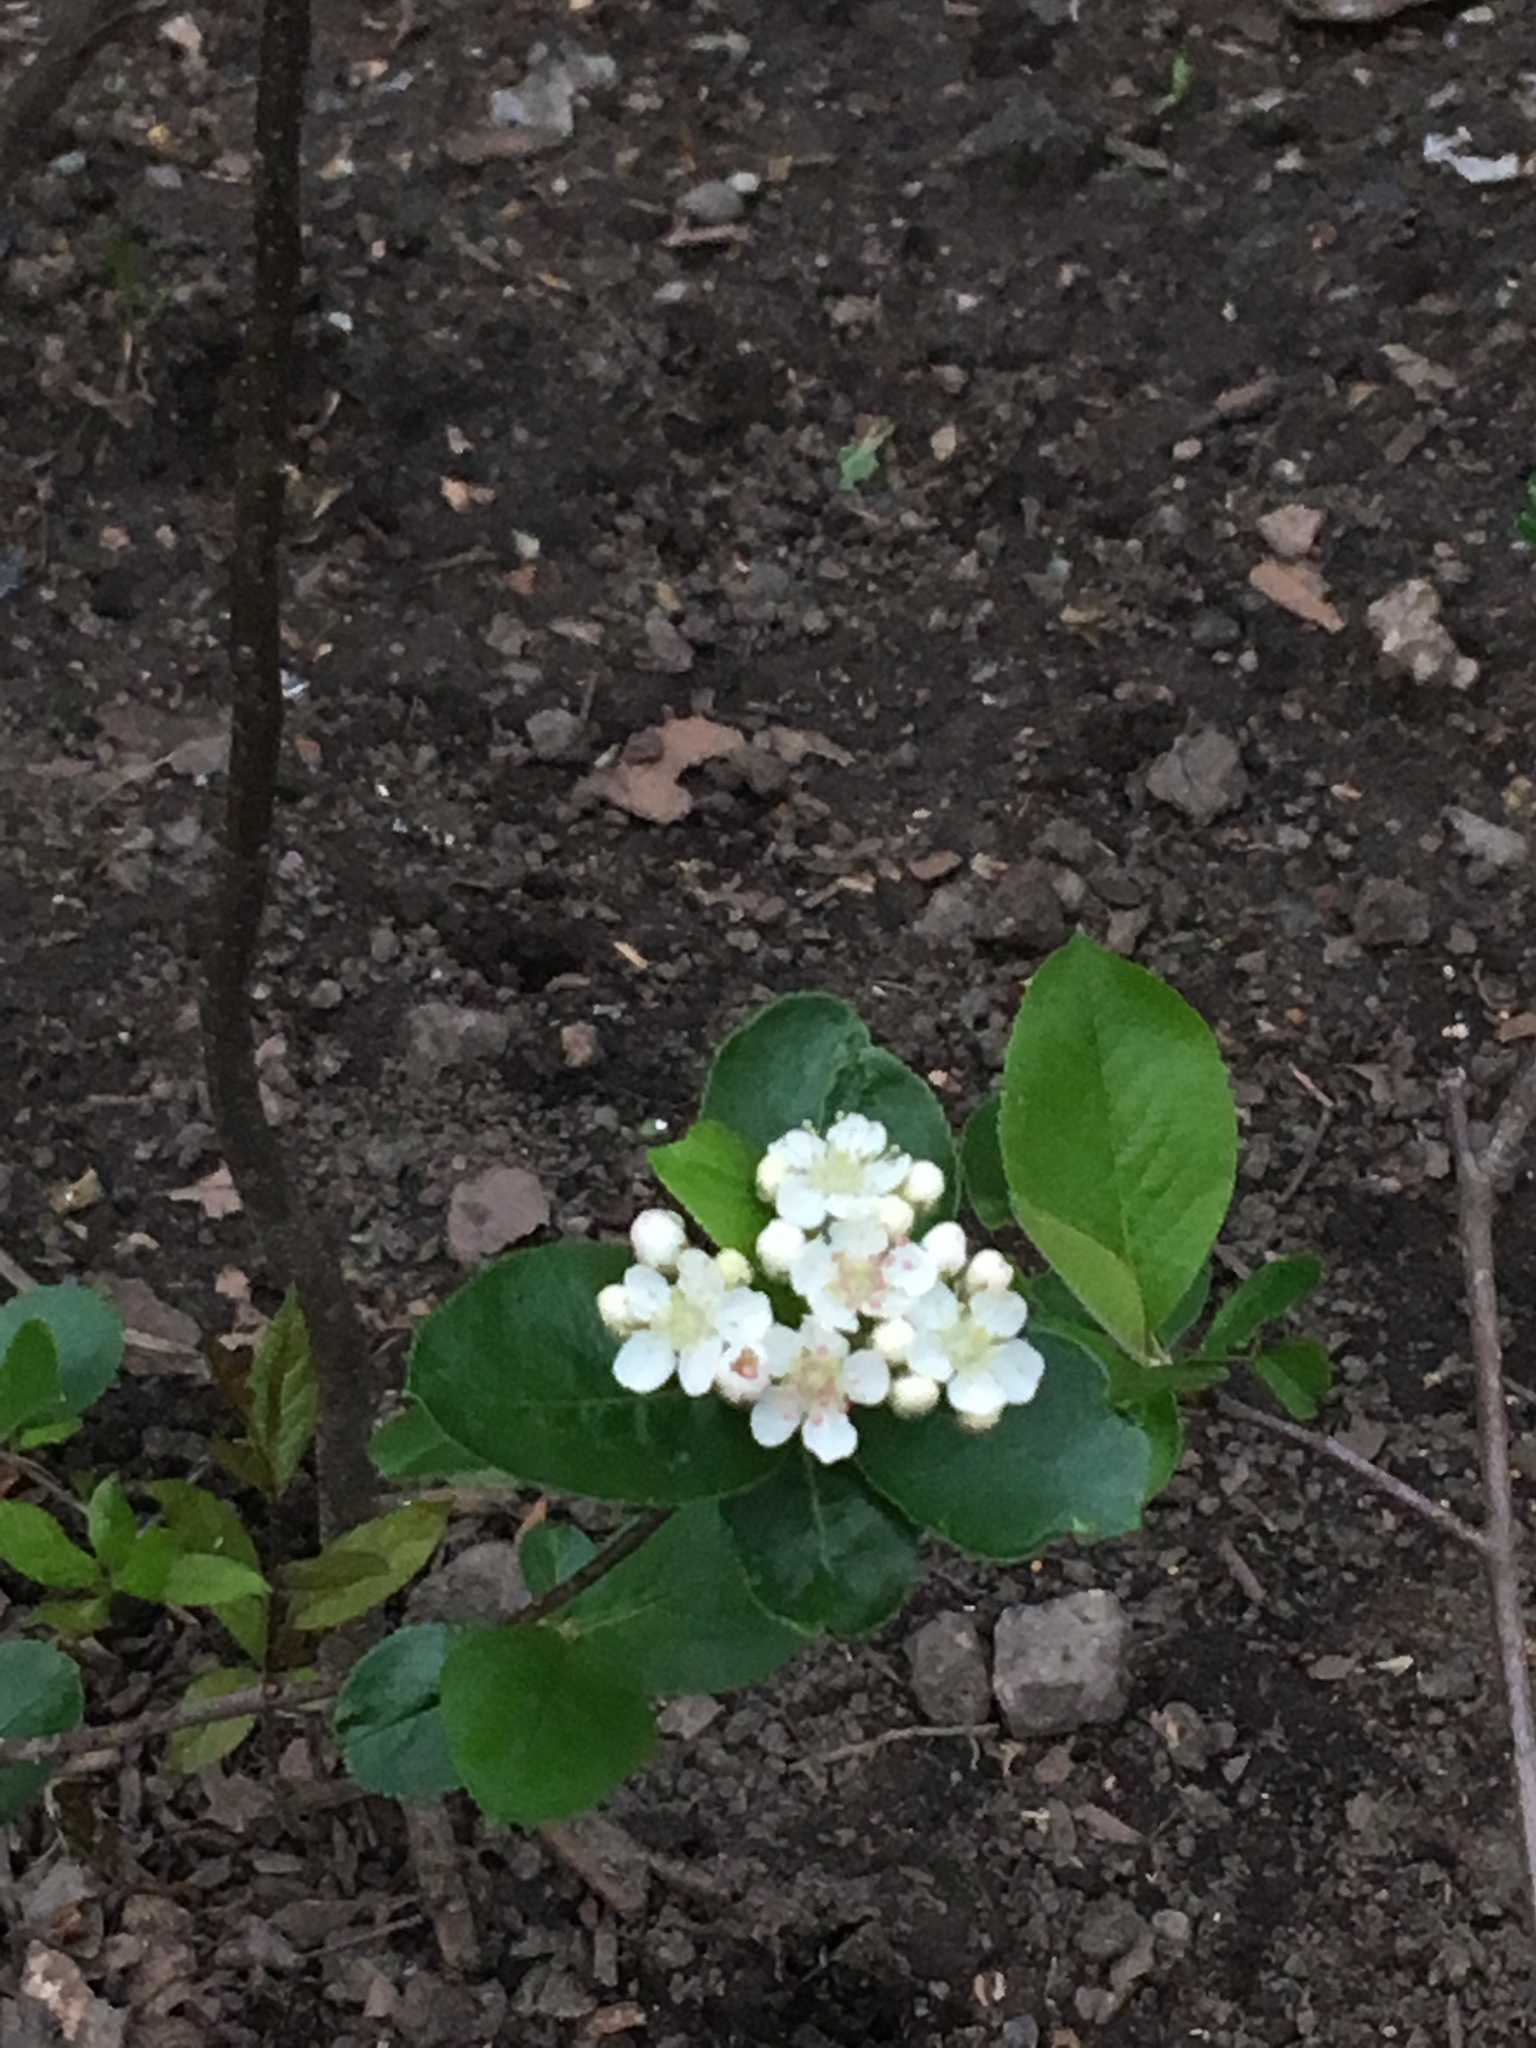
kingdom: Plantae
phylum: Tracheophyta
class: Magnoliopsida
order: Rosales
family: Rosaceae
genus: Aronia
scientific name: Aronia melanocarpa
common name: Black chokeberry
